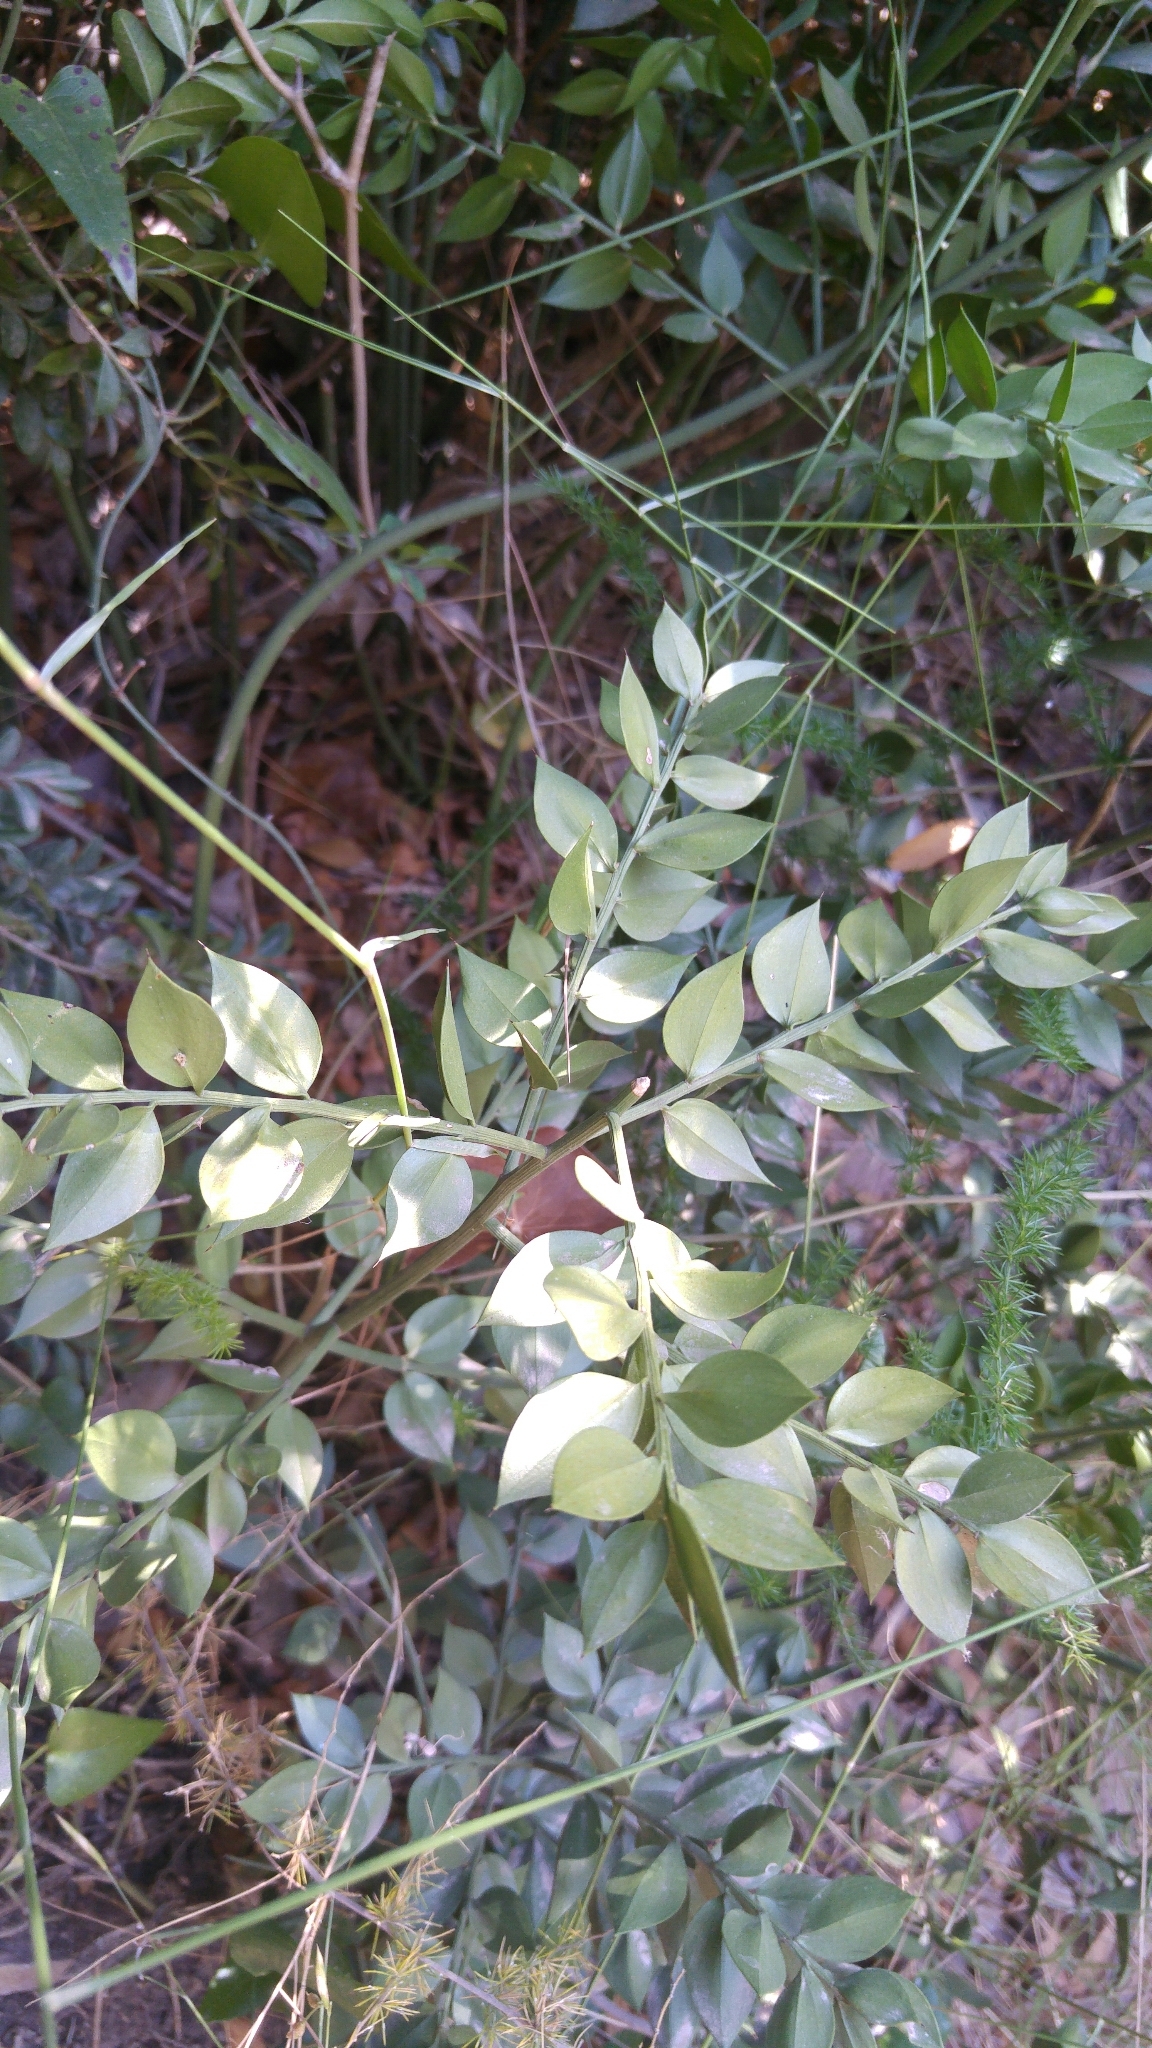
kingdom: Plantae
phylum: Tracheophyta
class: Liliopsida
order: Asparagales
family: Asparagaceae
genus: Ruscus
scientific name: Ruscus aculeatus
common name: Butcher's-broom
